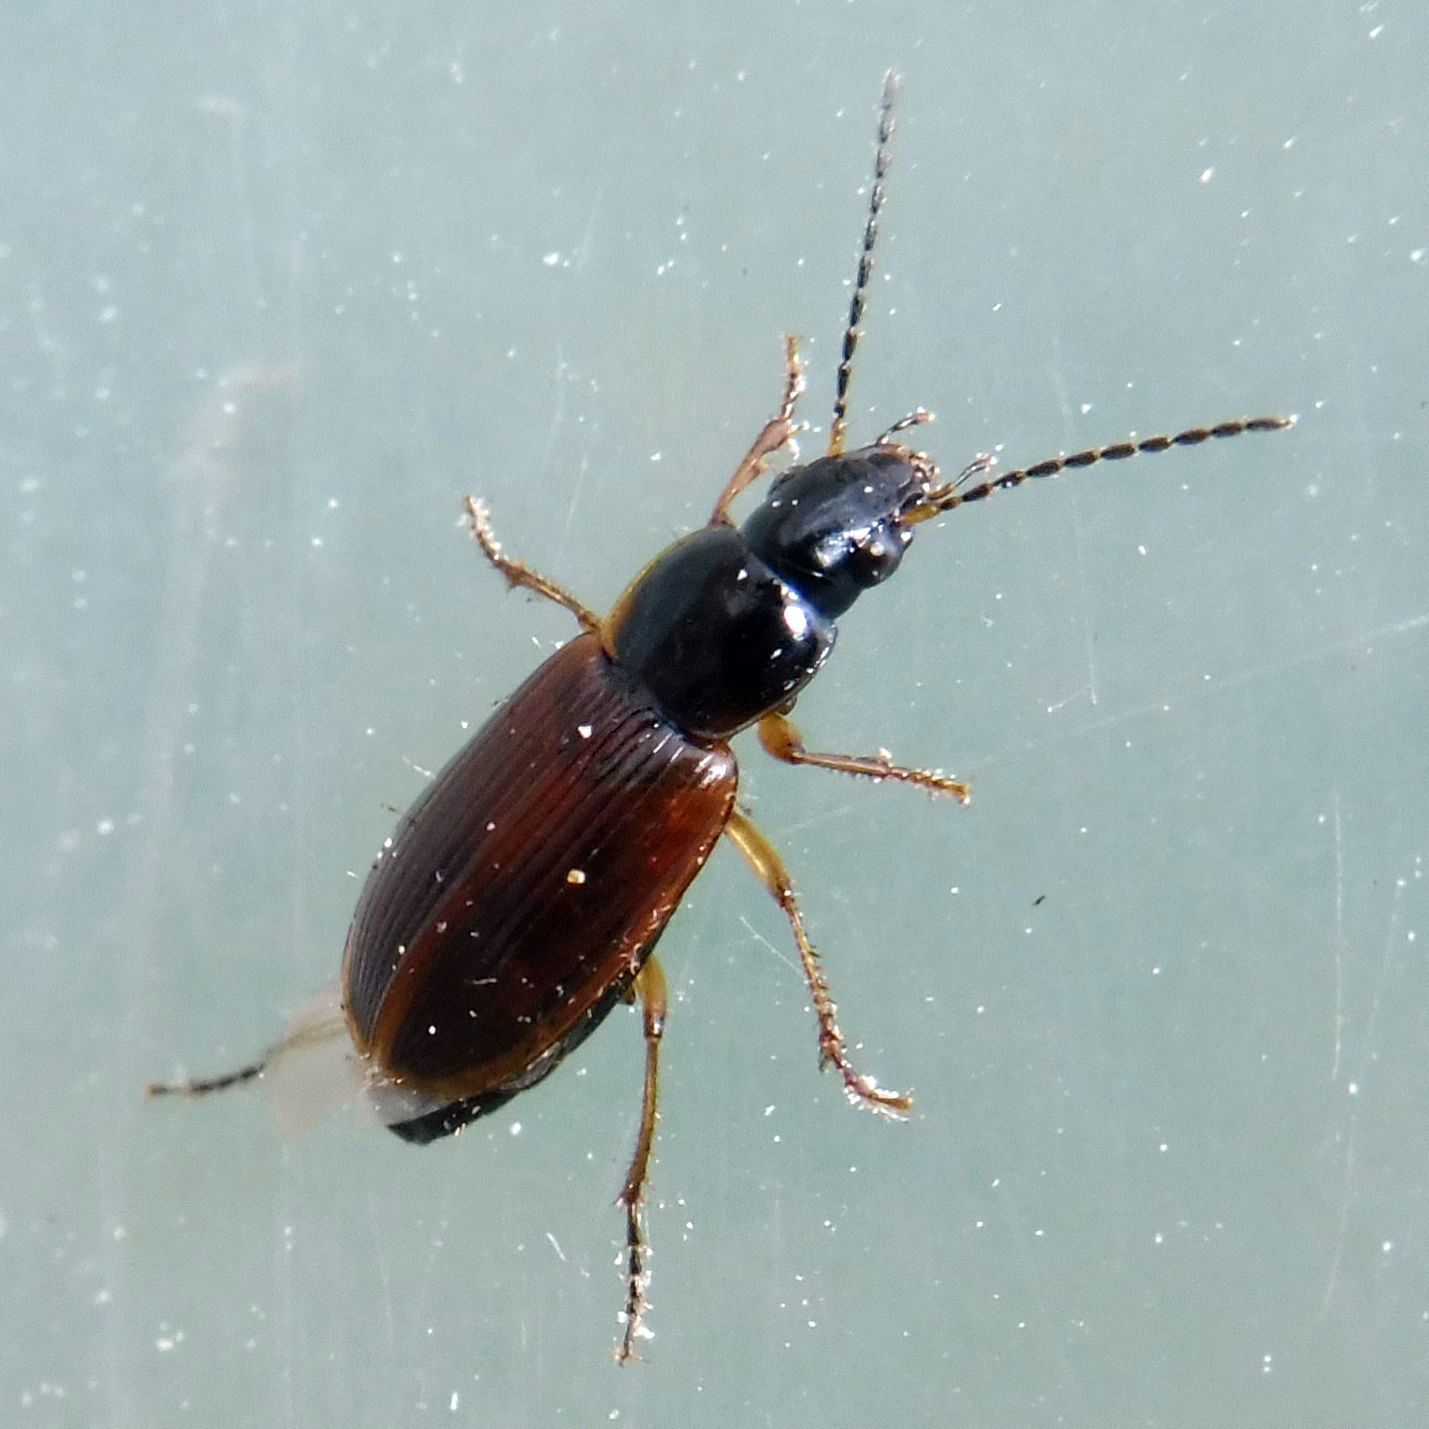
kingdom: Animalia
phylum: Arthropoda
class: Insecta
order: Coleoptera
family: Carabidae
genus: Stenolophus
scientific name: Stenolophus mixtus
